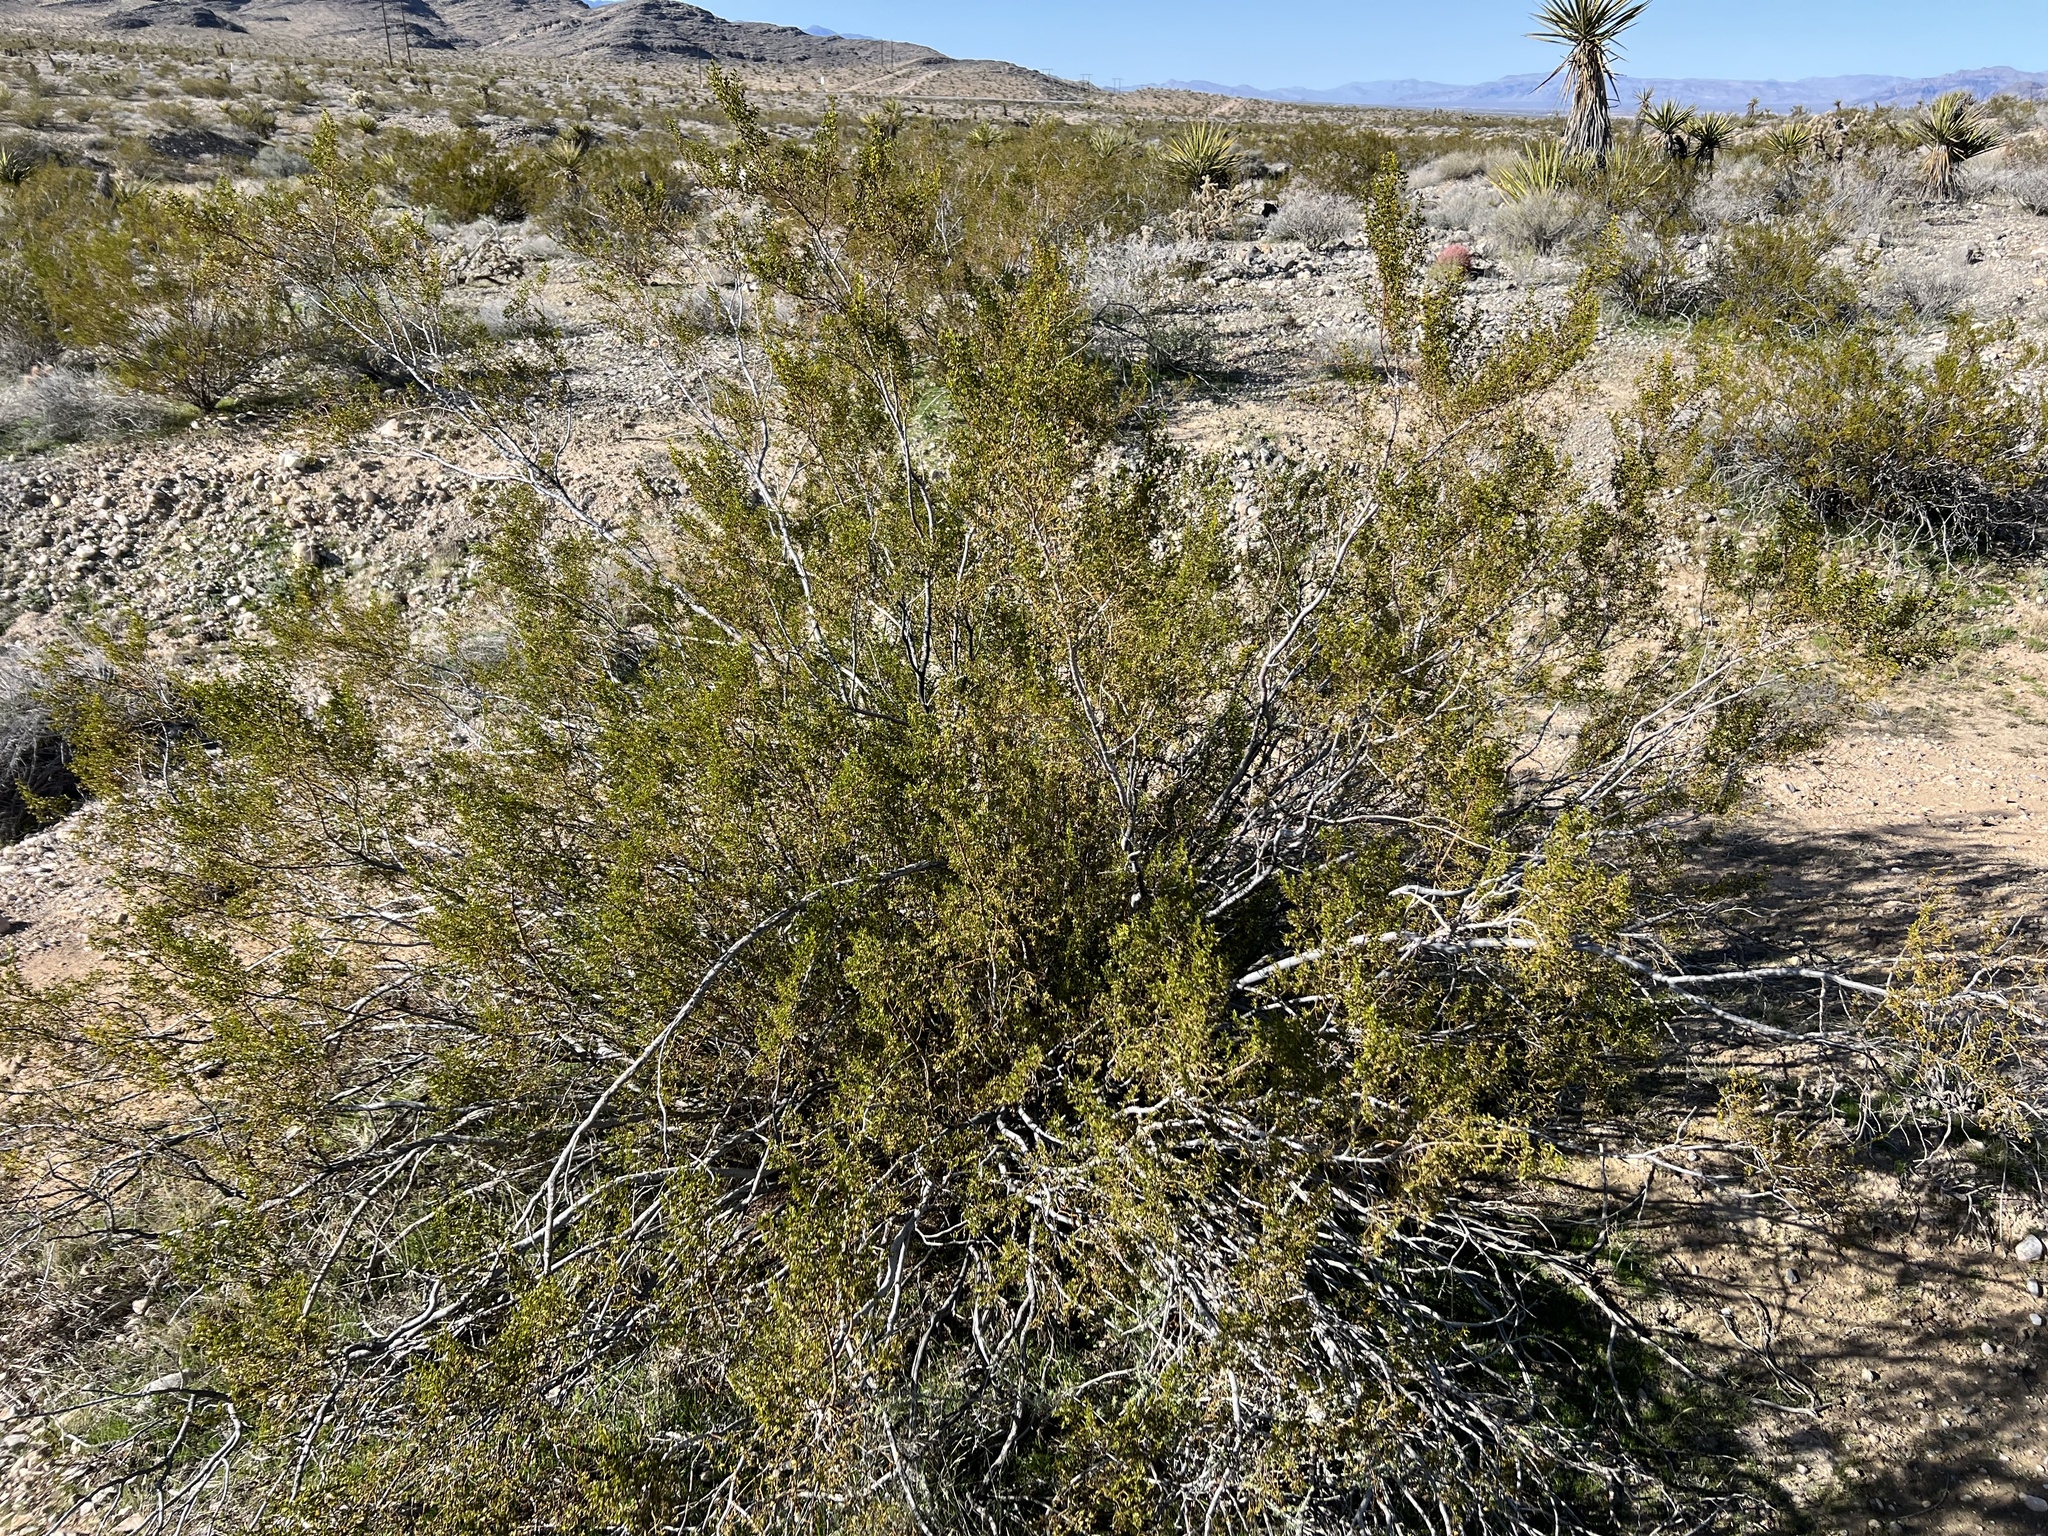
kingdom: Plantae
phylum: Tracheophyta
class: Magnoliopsida
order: Zygophyllales
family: Zygophyllaceae
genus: Larrea
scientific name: Larrea tridentata
